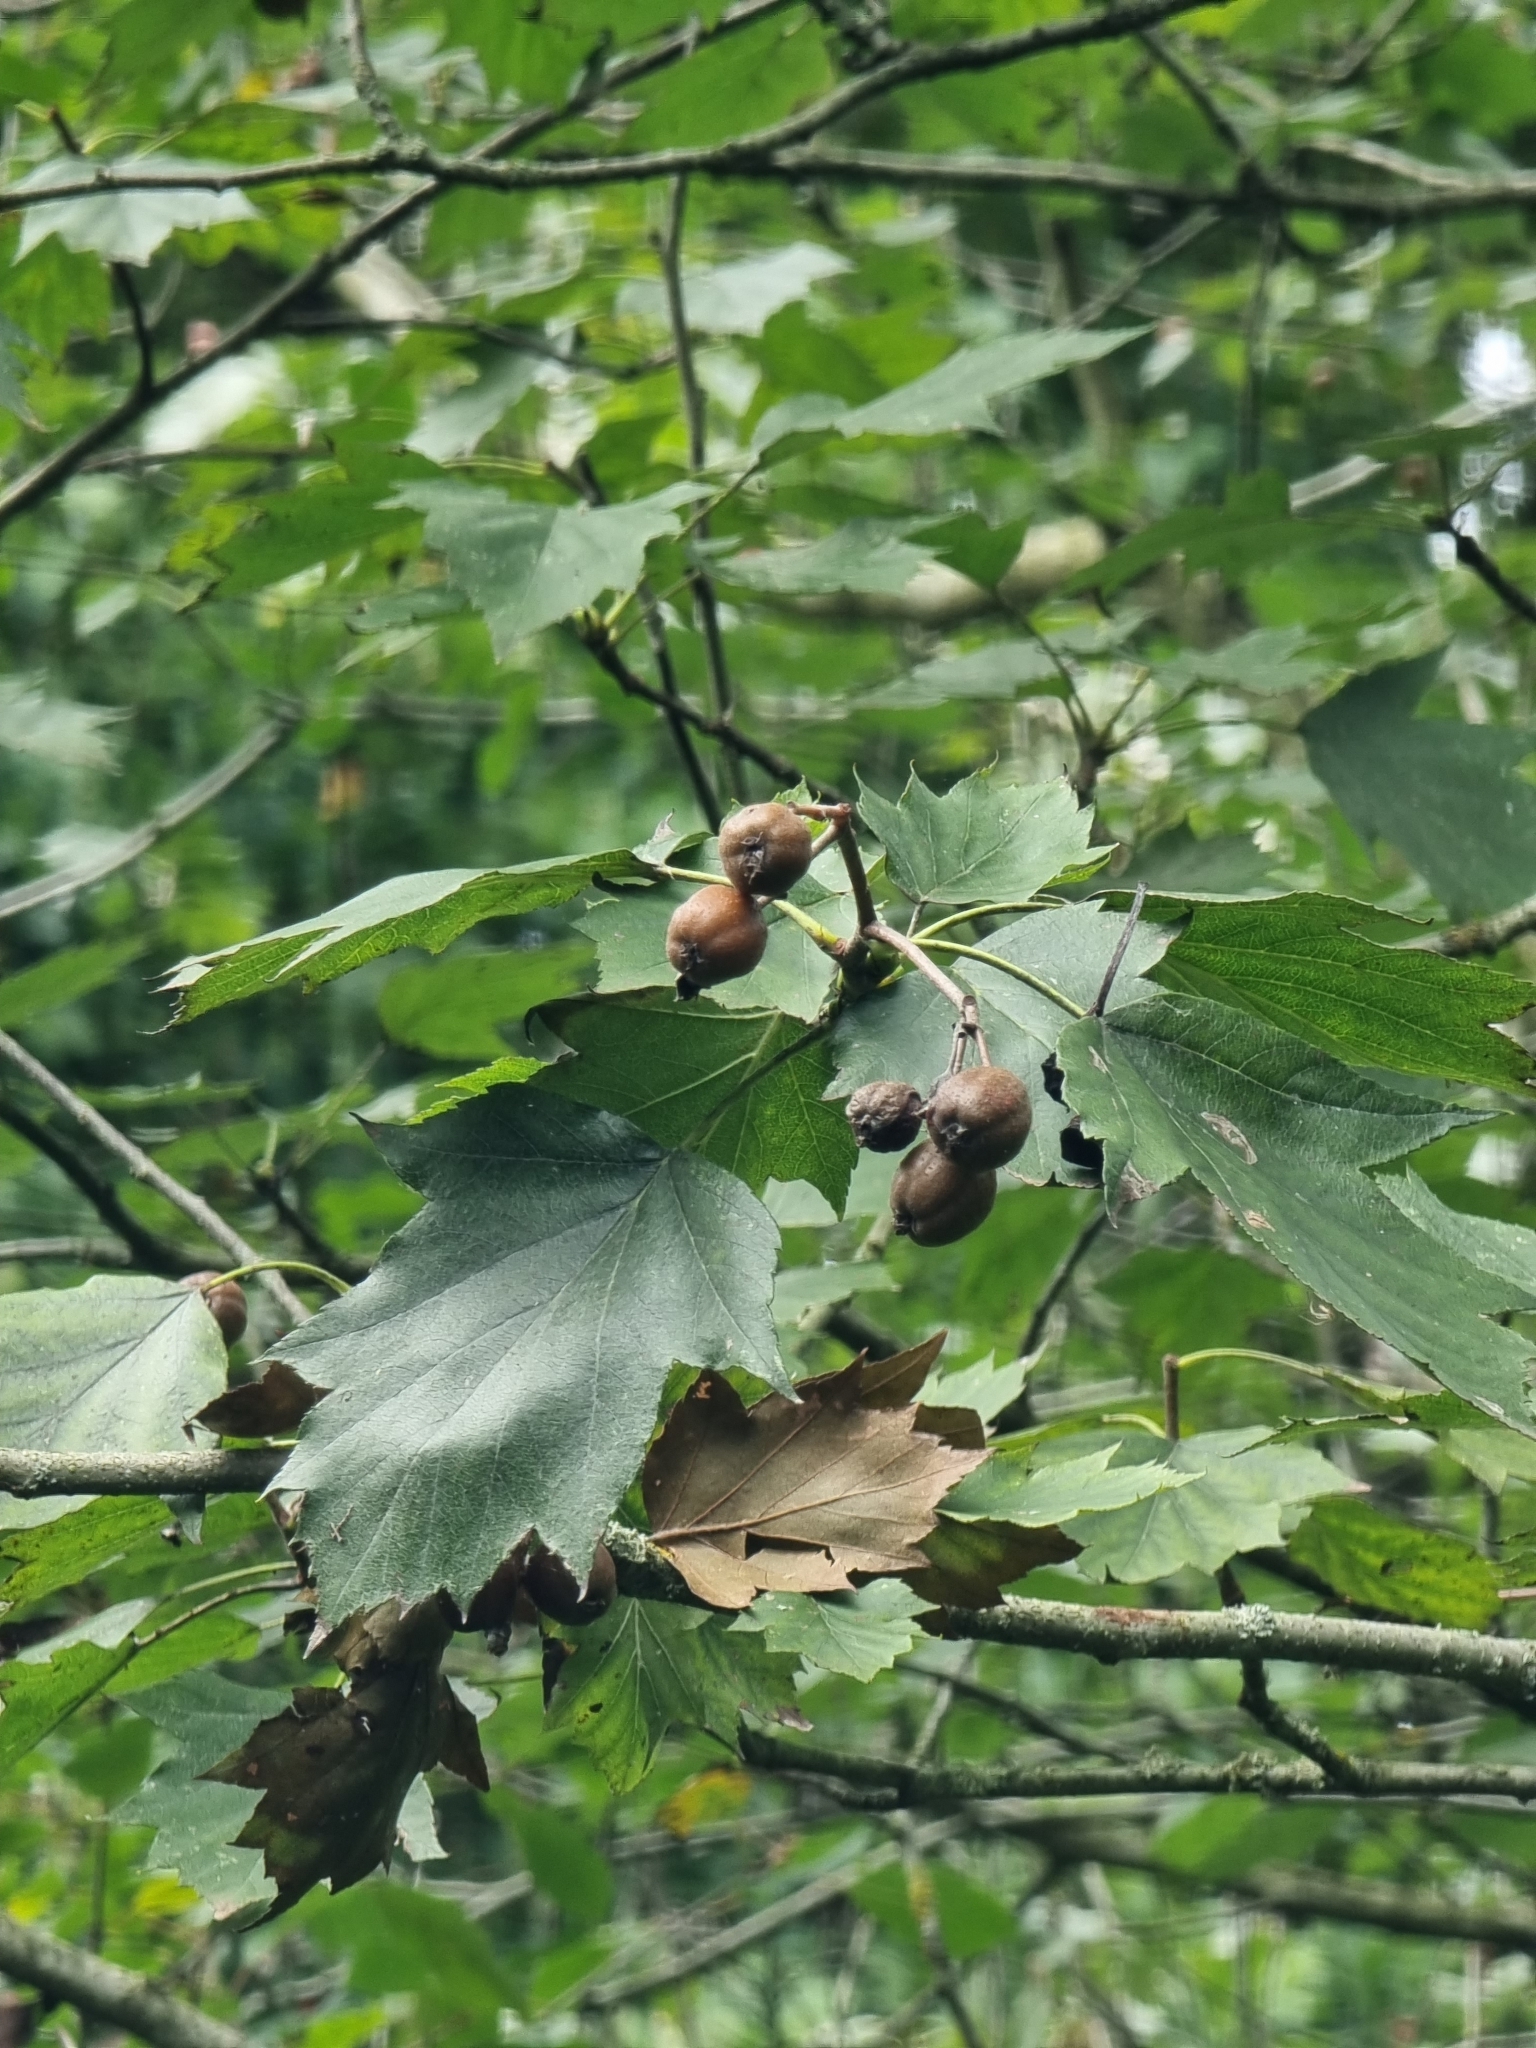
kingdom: Plantae
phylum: Tracheophyta
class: Magnoliopsida
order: Rosales
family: Rosaceae
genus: Torminalis
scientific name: Torminalis glaberrima
